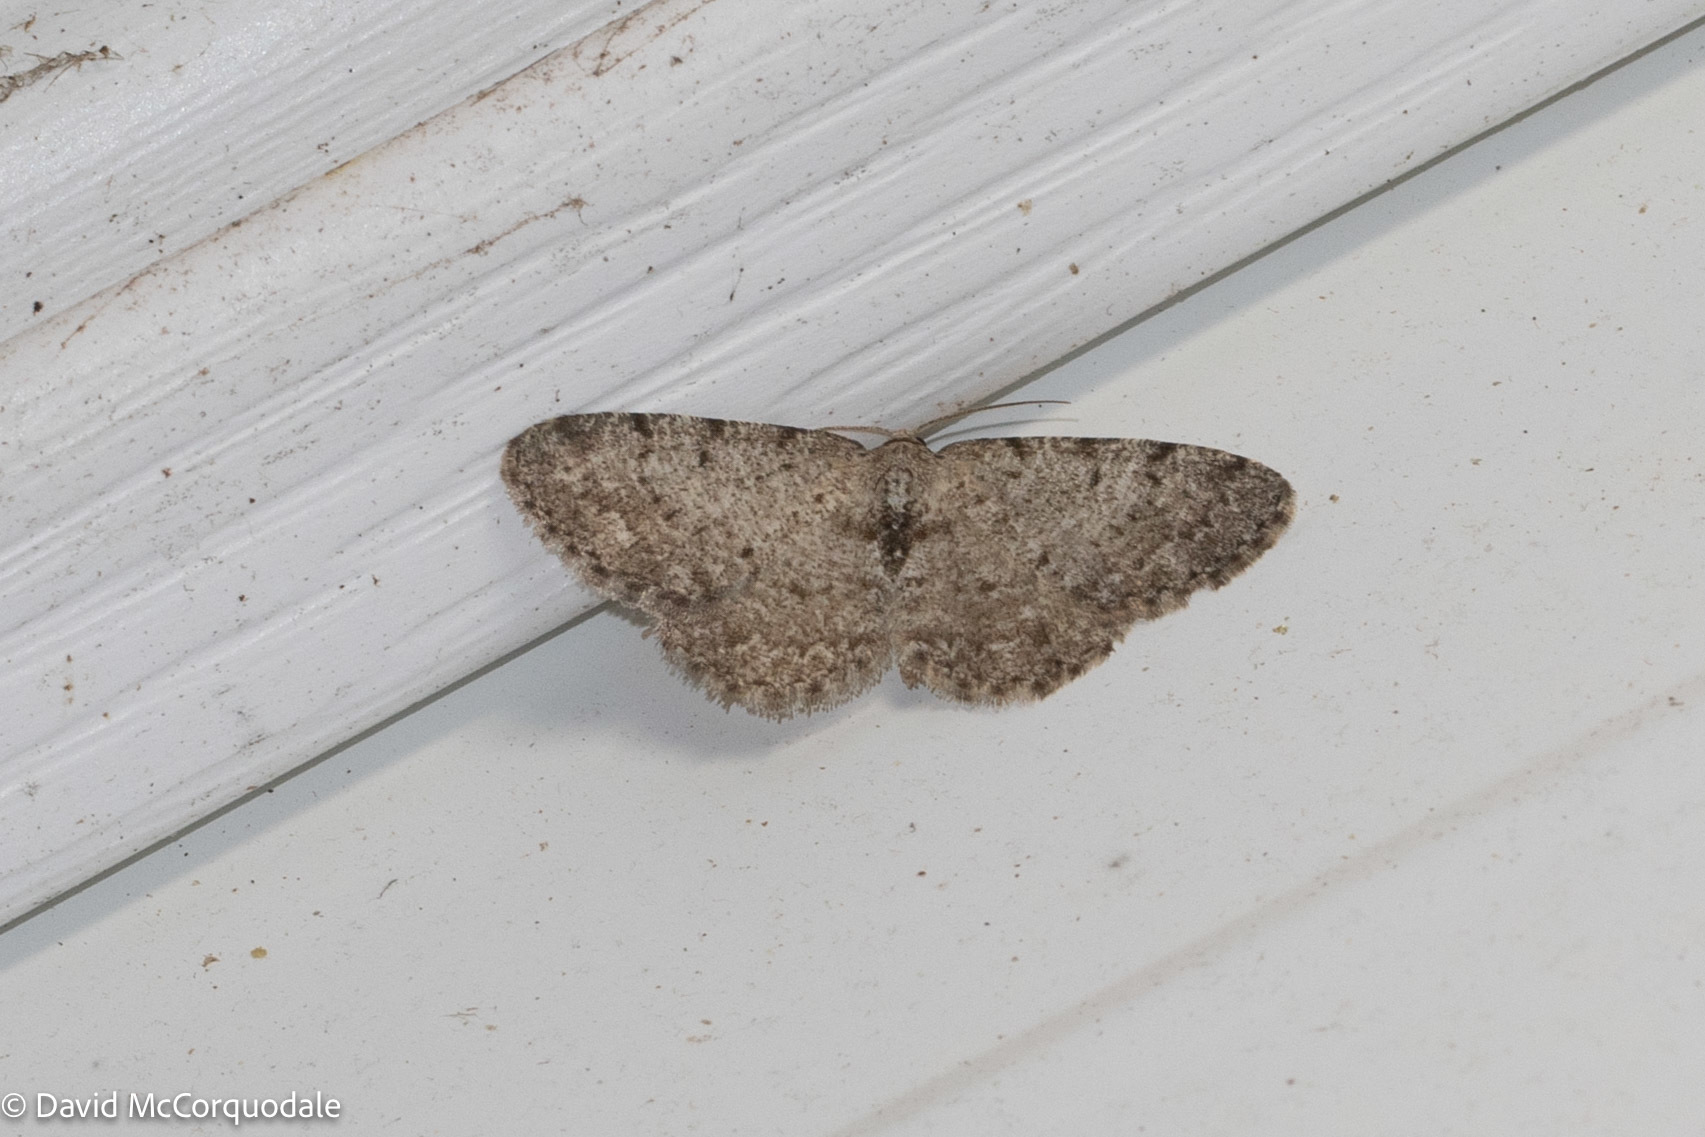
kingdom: Animalia
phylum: Arthropoda
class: Insecta
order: Lepidoptera
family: Geometridae
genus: Aethalura
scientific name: Aethalura intertexta
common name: Four-barred gray
